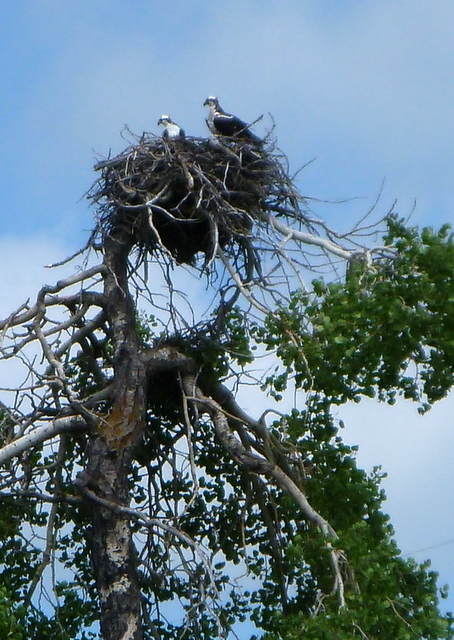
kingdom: Animalia
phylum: Chordata
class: Aves
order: Accipitriformes
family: Pandionidae
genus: Pandion
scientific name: Pandion haliaetus
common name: Osprey
